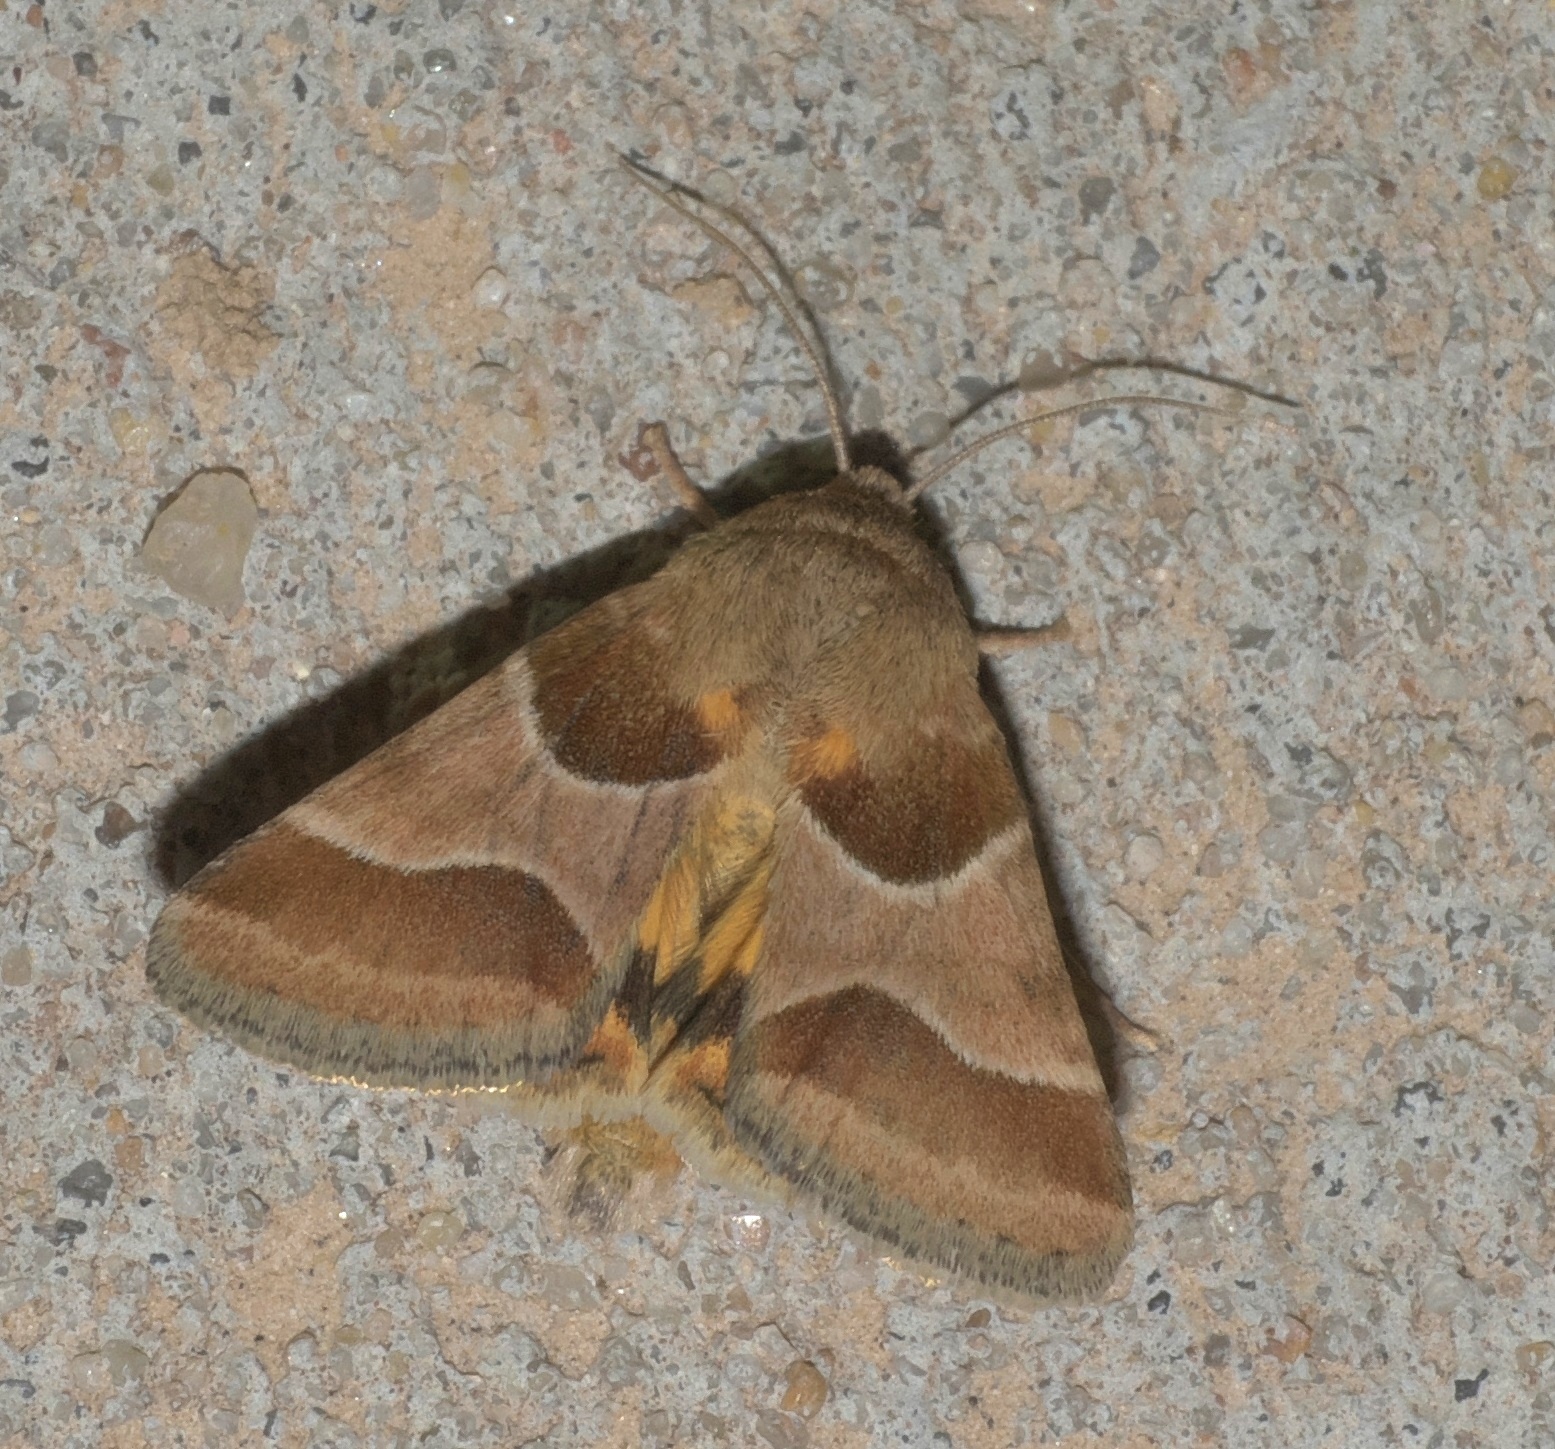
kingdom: Animalia
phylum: Arthropoda
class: Insecta
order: Lepidoptera
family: Noctuidae
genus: Schinia
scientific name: Schinia jaguarina
